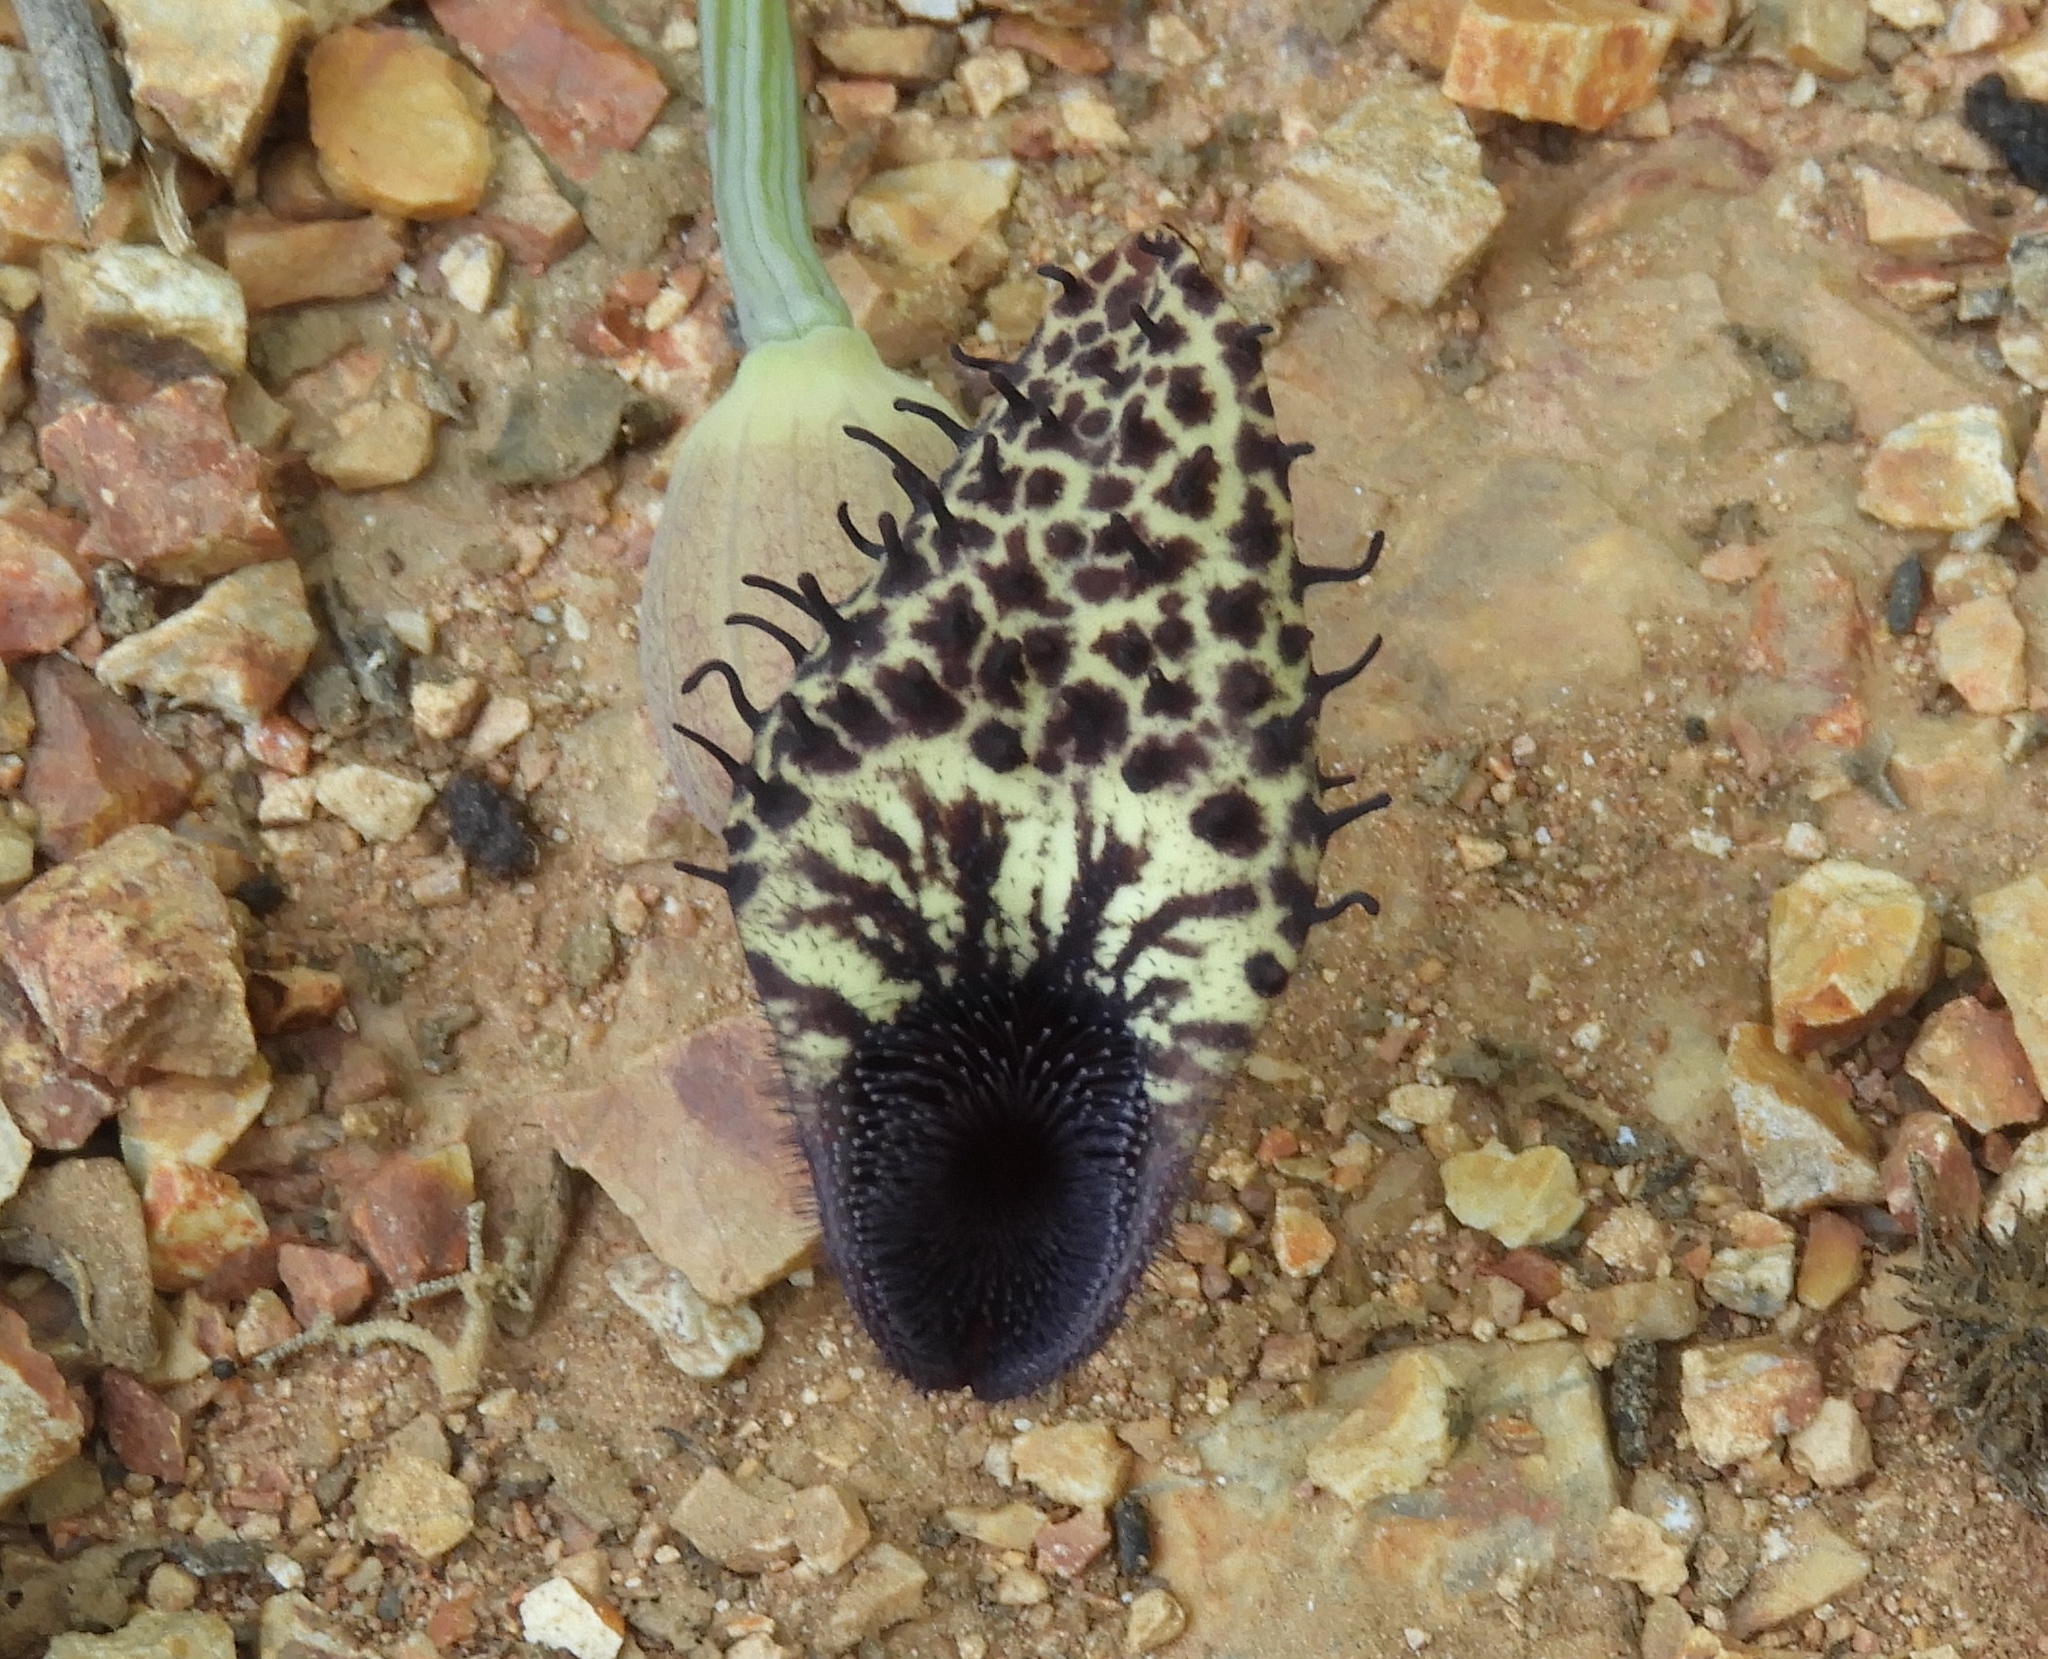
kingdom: Plantae
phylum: Tracheophyta
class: Magnoliopsida
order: Piperales
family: Aristolochiaceae
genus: Aristolochia
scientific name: Aristolochia taliscana
